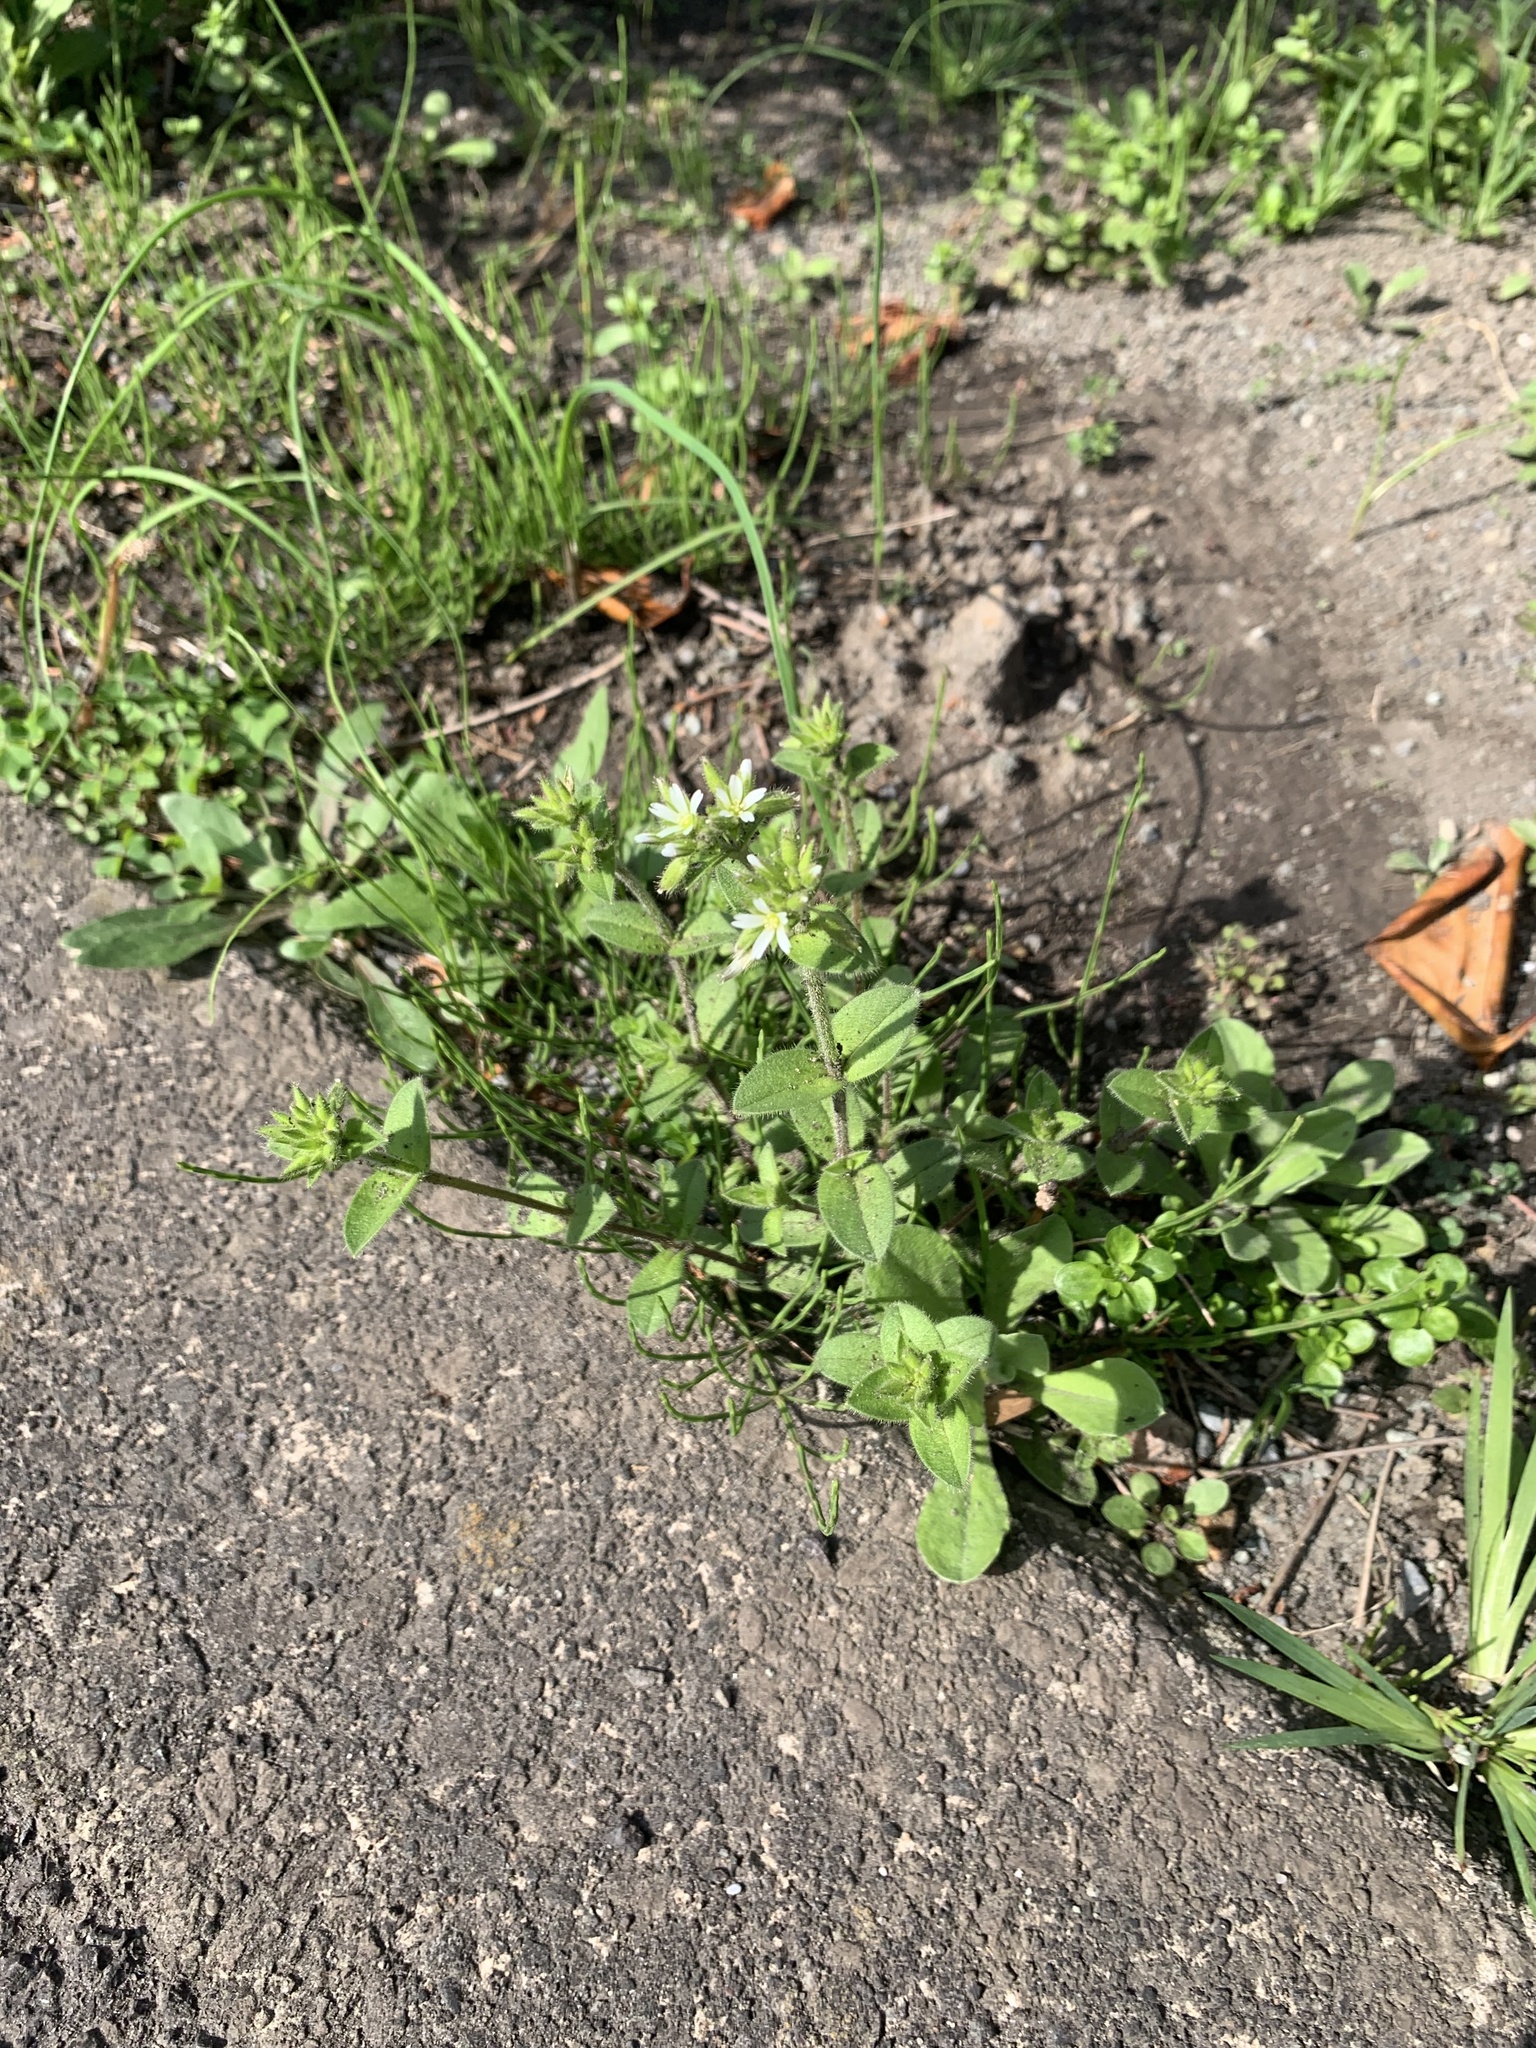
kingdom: Plantae
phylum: Tracheophyta
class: Magnoliopsida
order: Caryophyllales
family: Caryophyllaceae
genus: Cerastium
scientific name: Cerastium glomeratum
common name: Sticky chickweed
